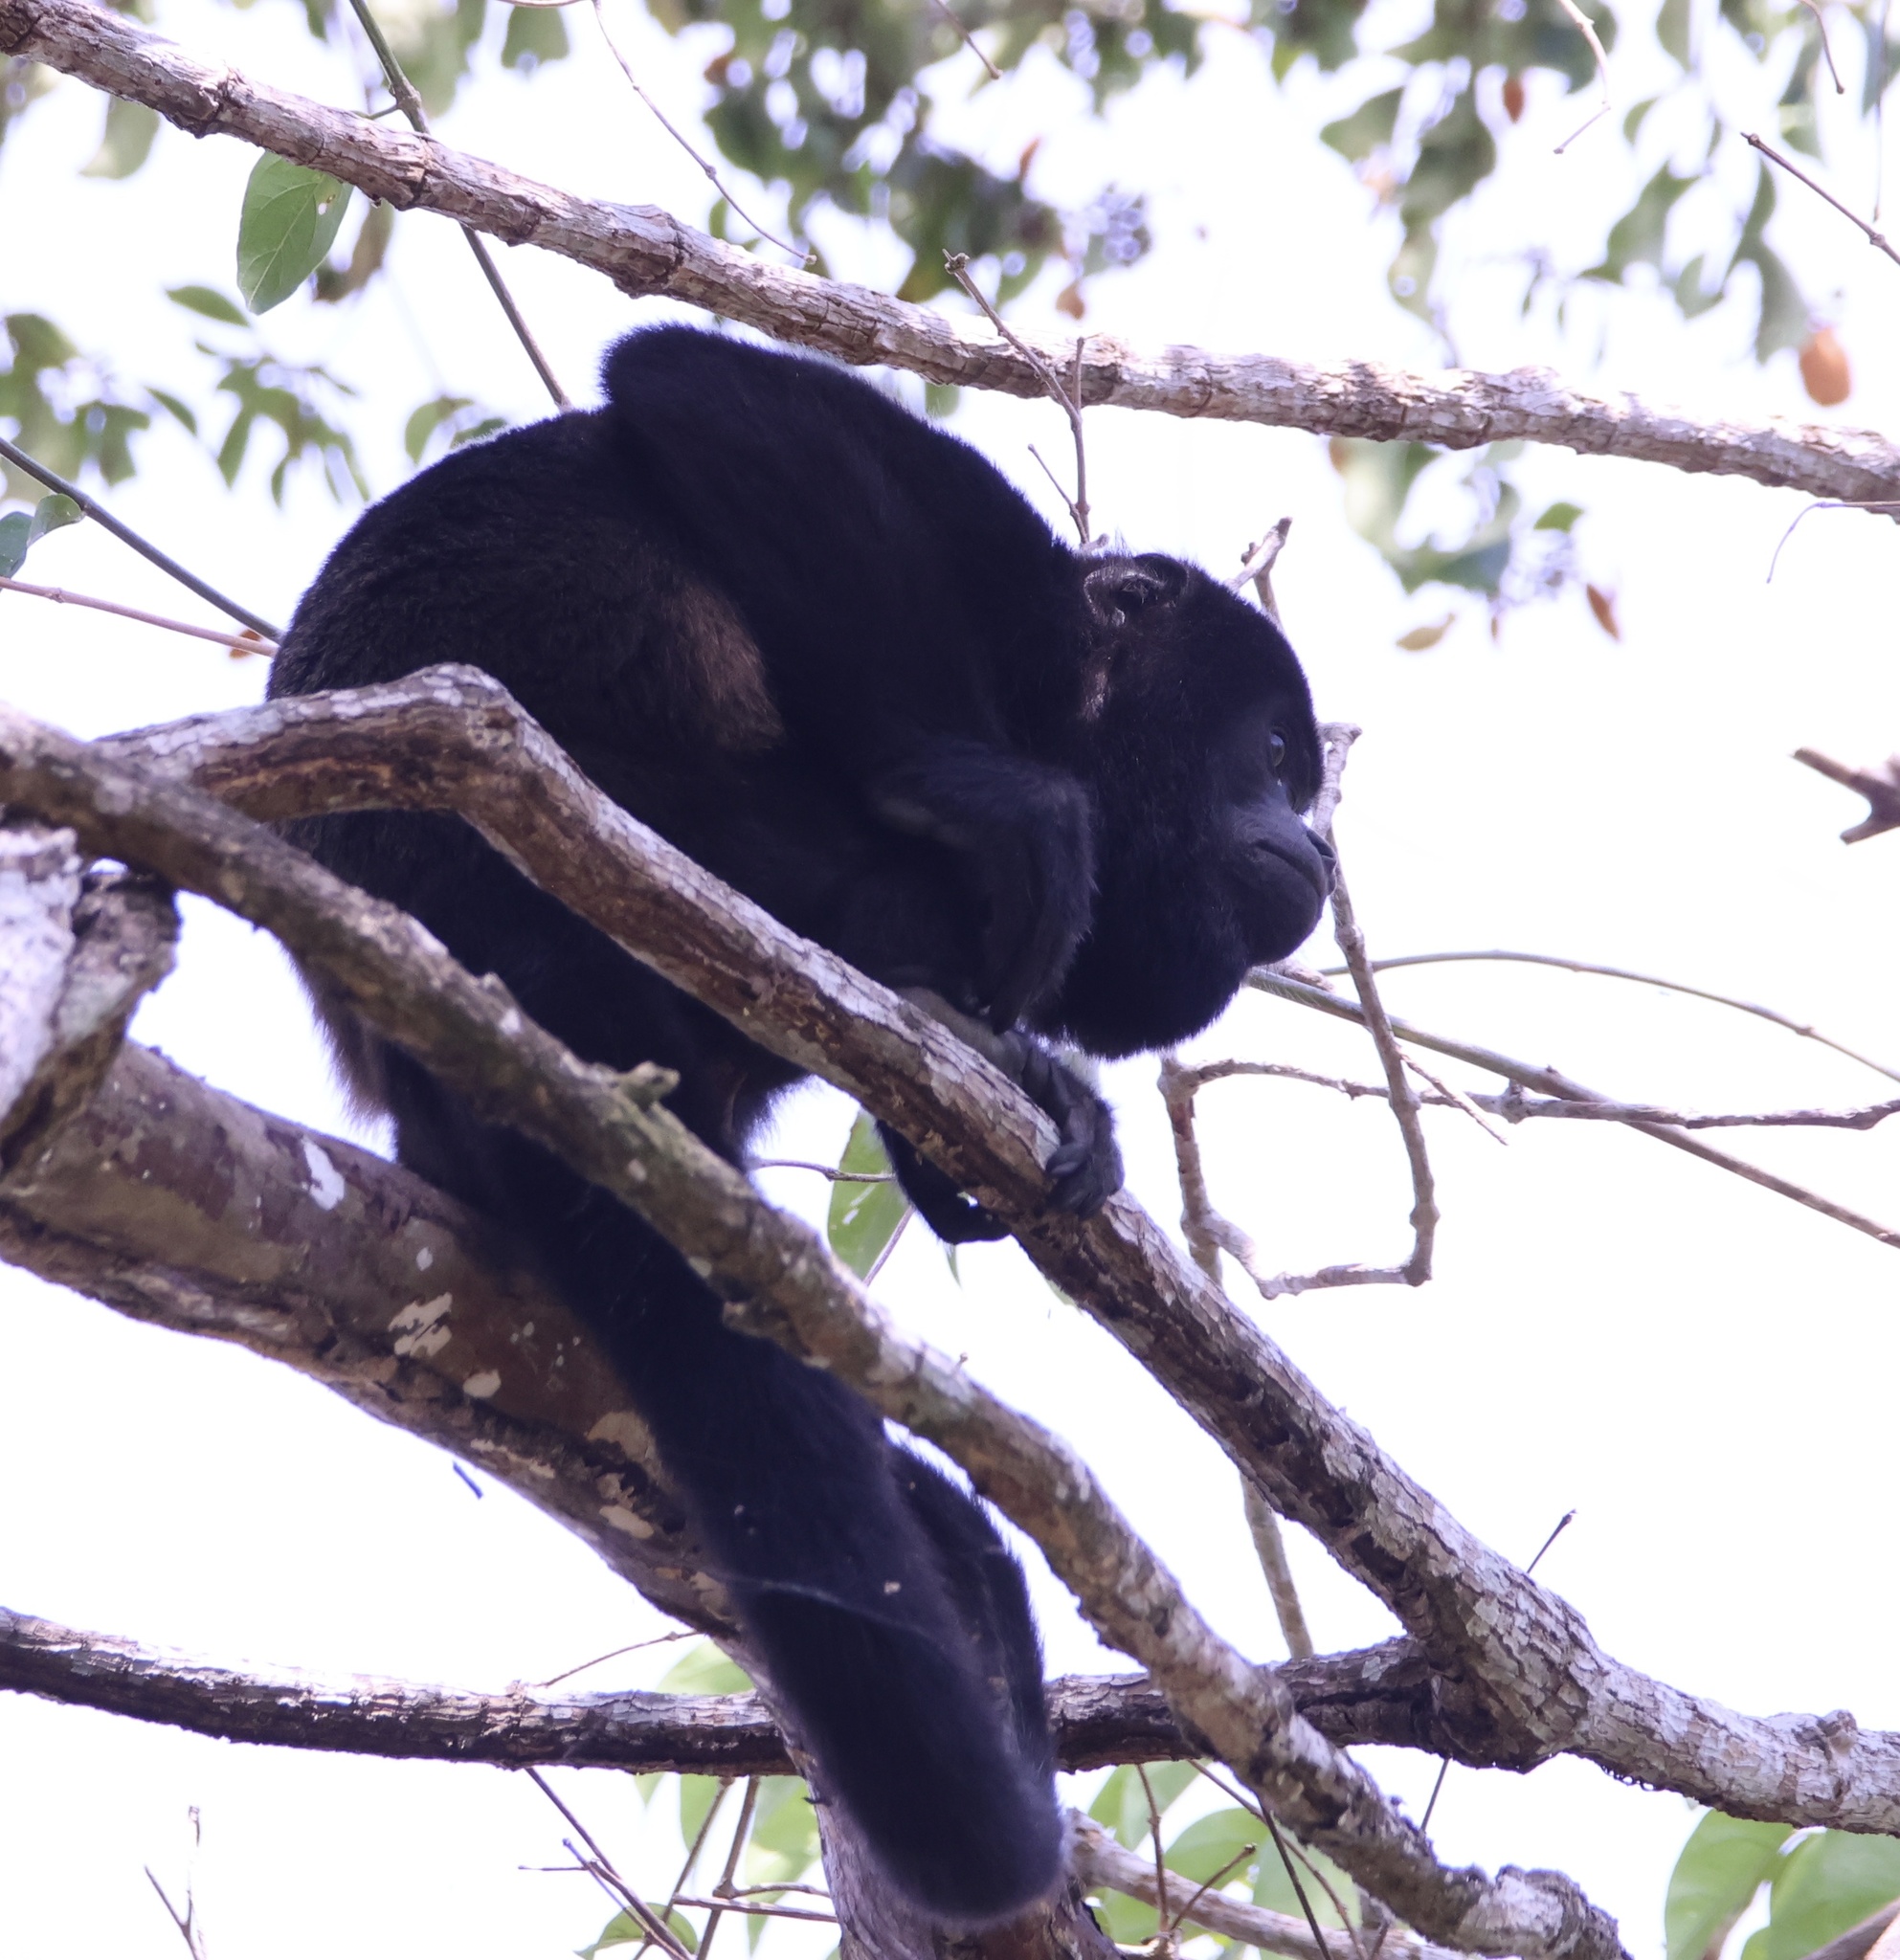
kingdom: Animalia
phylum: Chordata
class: Mammalia
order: Primates
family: Atelidae
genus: Alouatta
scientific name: Alouatta palliata
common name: Mantled howler
